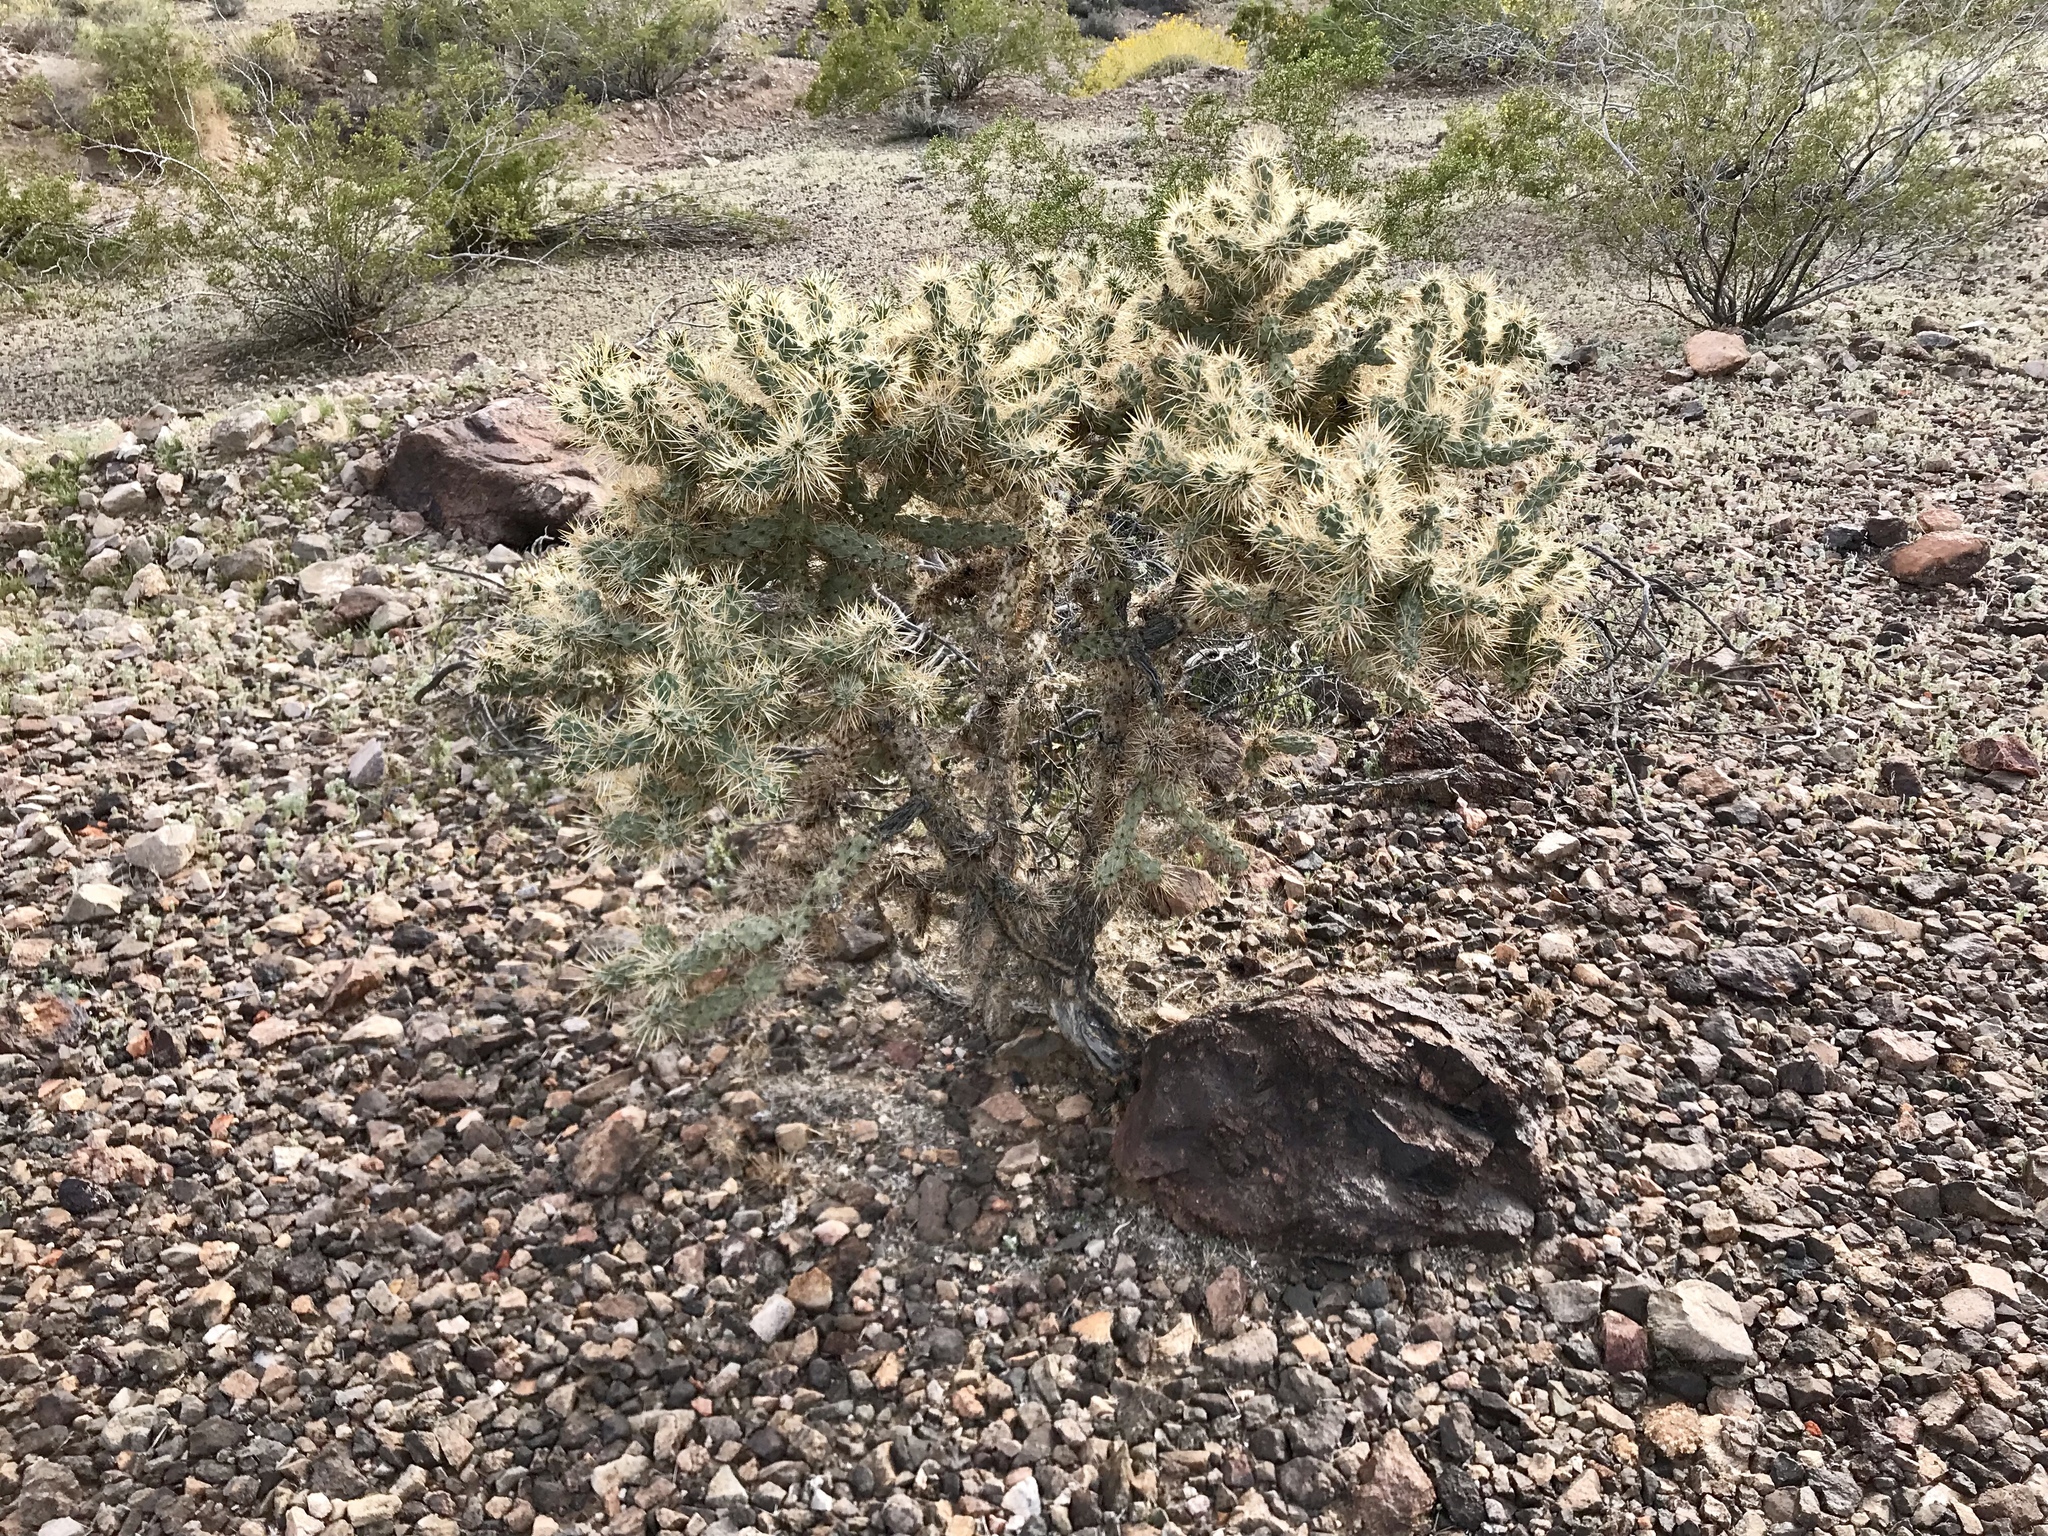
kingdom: Plantae
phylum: Tracheophyta
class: Magnoliopsida
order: Caryophyllales
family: Cactaceae
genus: Cylindropuntia
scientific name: Cylindropuntia echinocarpa
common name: Ground cholla
